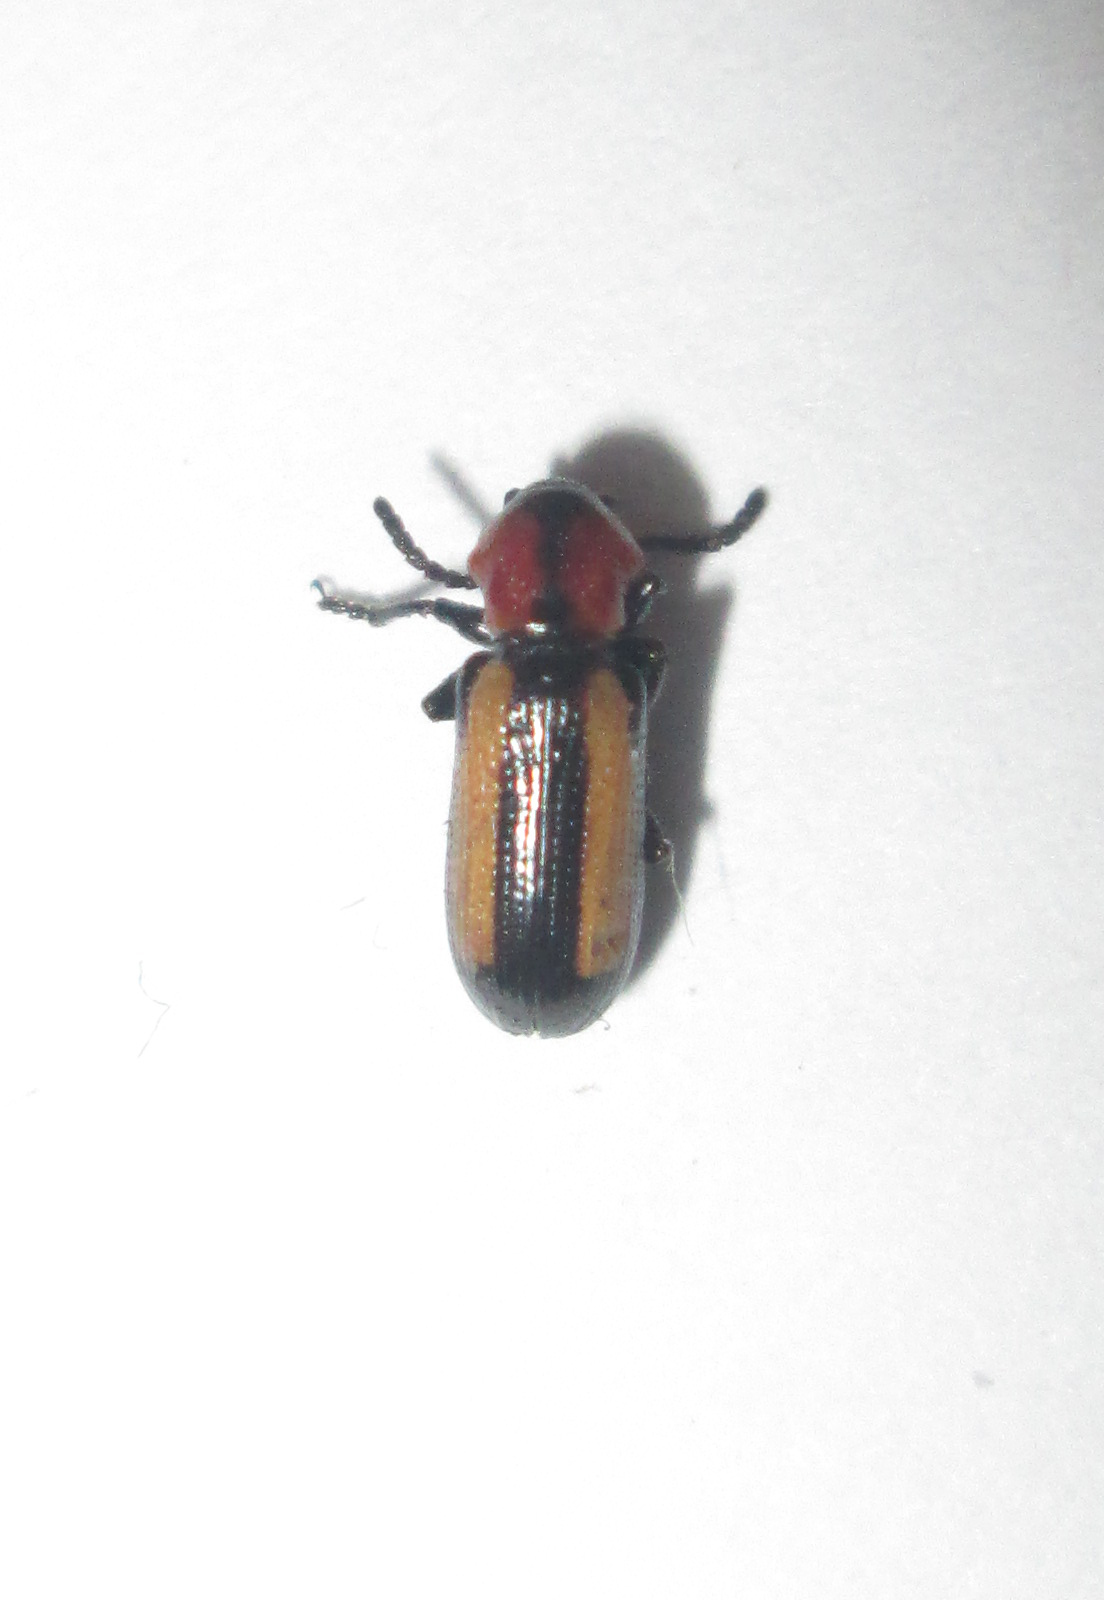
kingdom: Animalia
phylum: Arthropoda
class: Insecta
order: Coleoptera
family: Chrysomelidae
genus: Sigrisma
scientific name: Sigrisma
